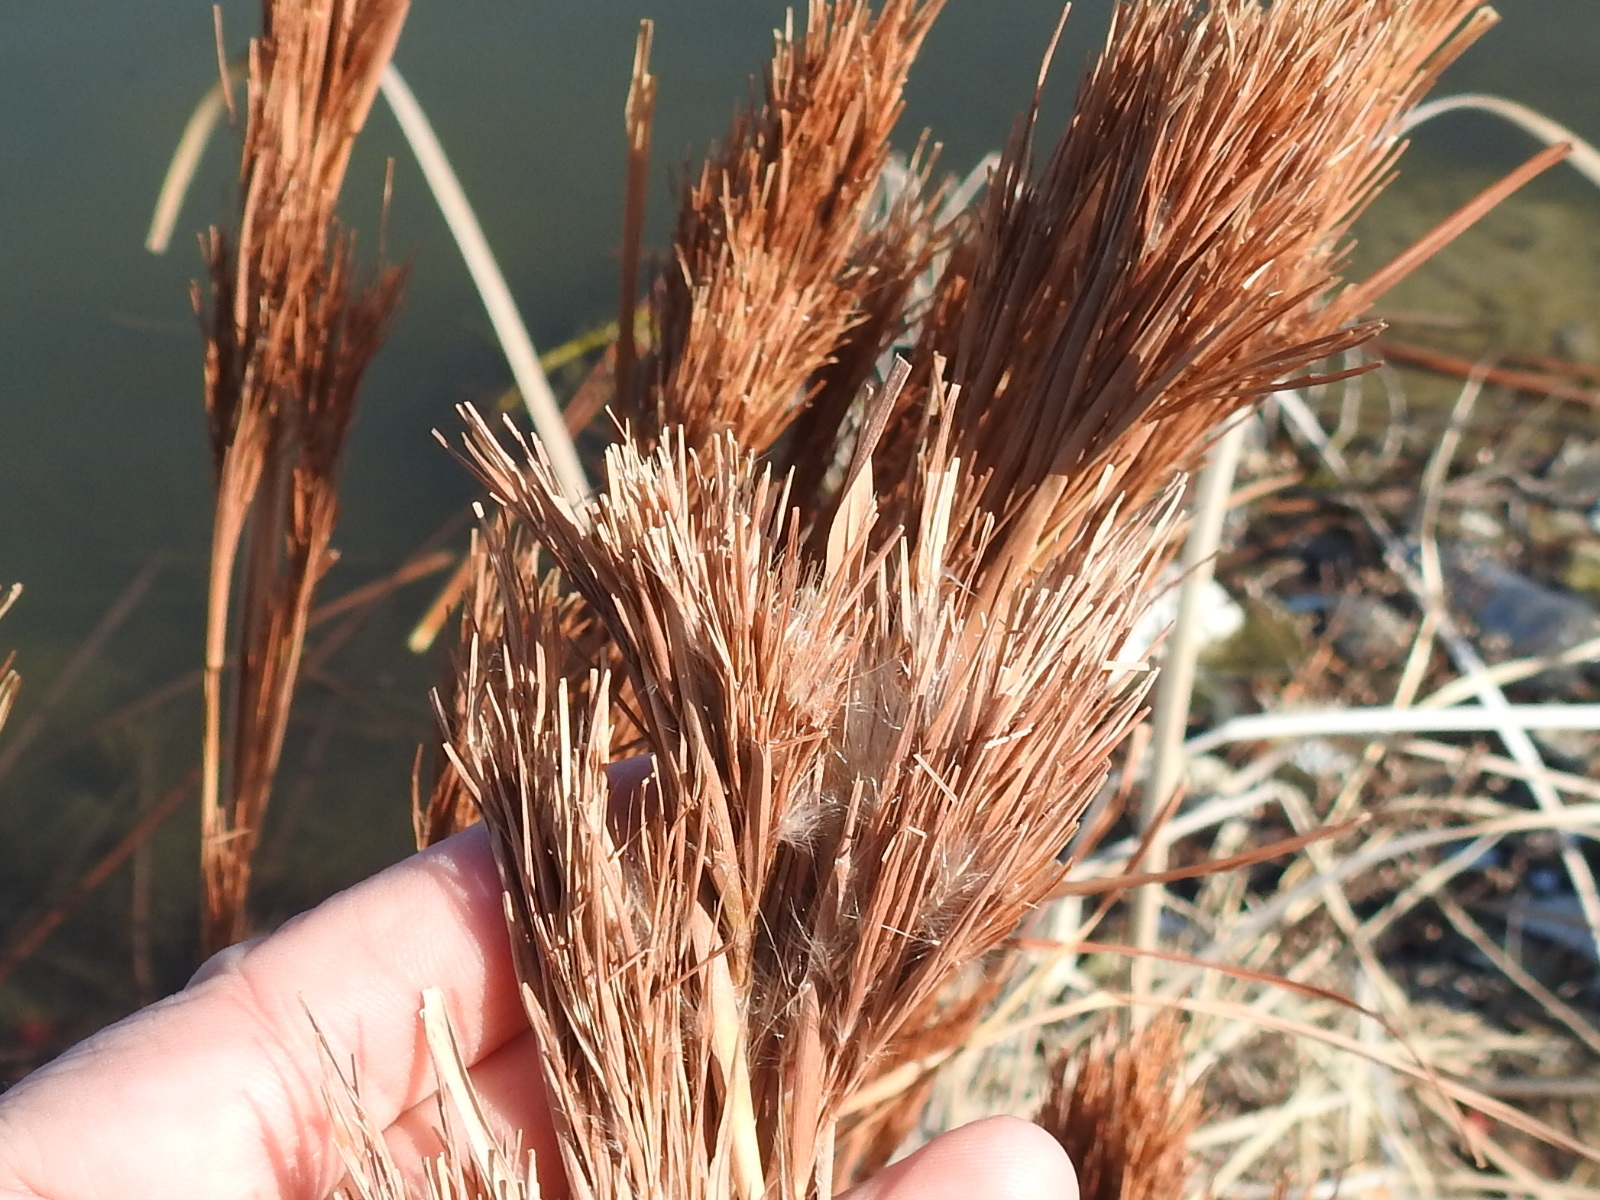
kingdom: Plantae
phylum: Tracheophyta
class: Liliopsida
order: Poales
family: Poaceae
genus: Andropogon
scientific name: Andropogon tenuispatheus
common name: Bushy bluestem
